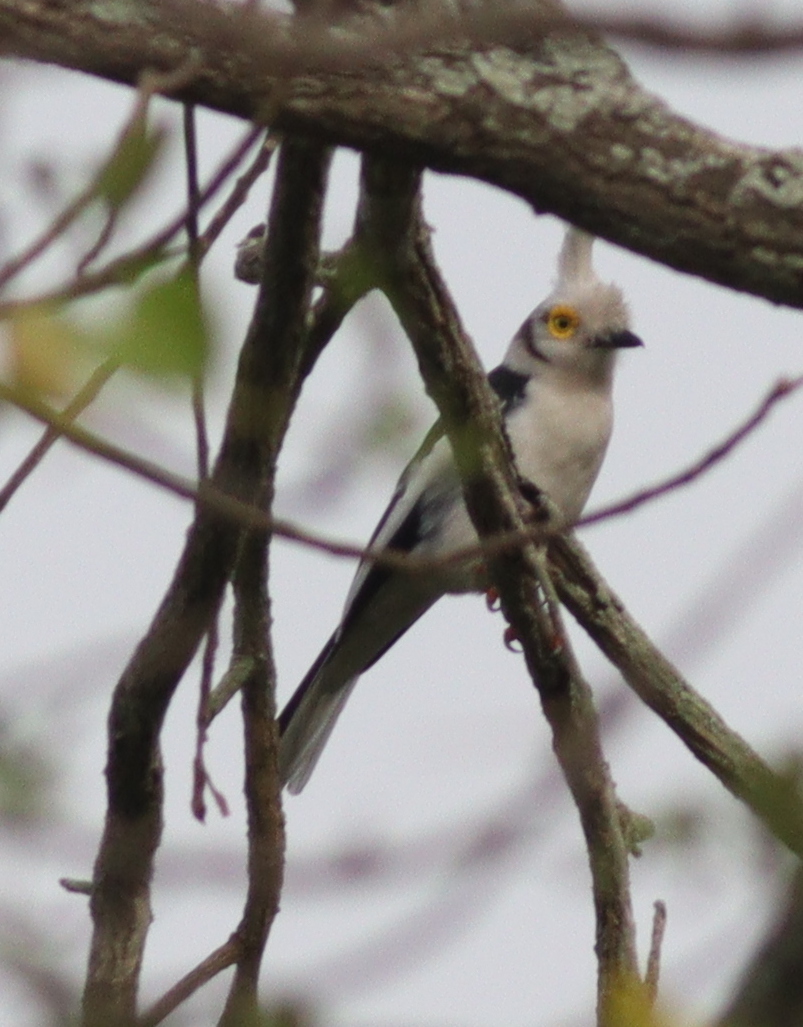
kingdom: Animalia
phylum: Chordata
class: Aves
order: Passeriformes
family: Prionopidae
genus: Prionops
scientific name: Prionops plumatus
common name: White-crested helmetshrike
